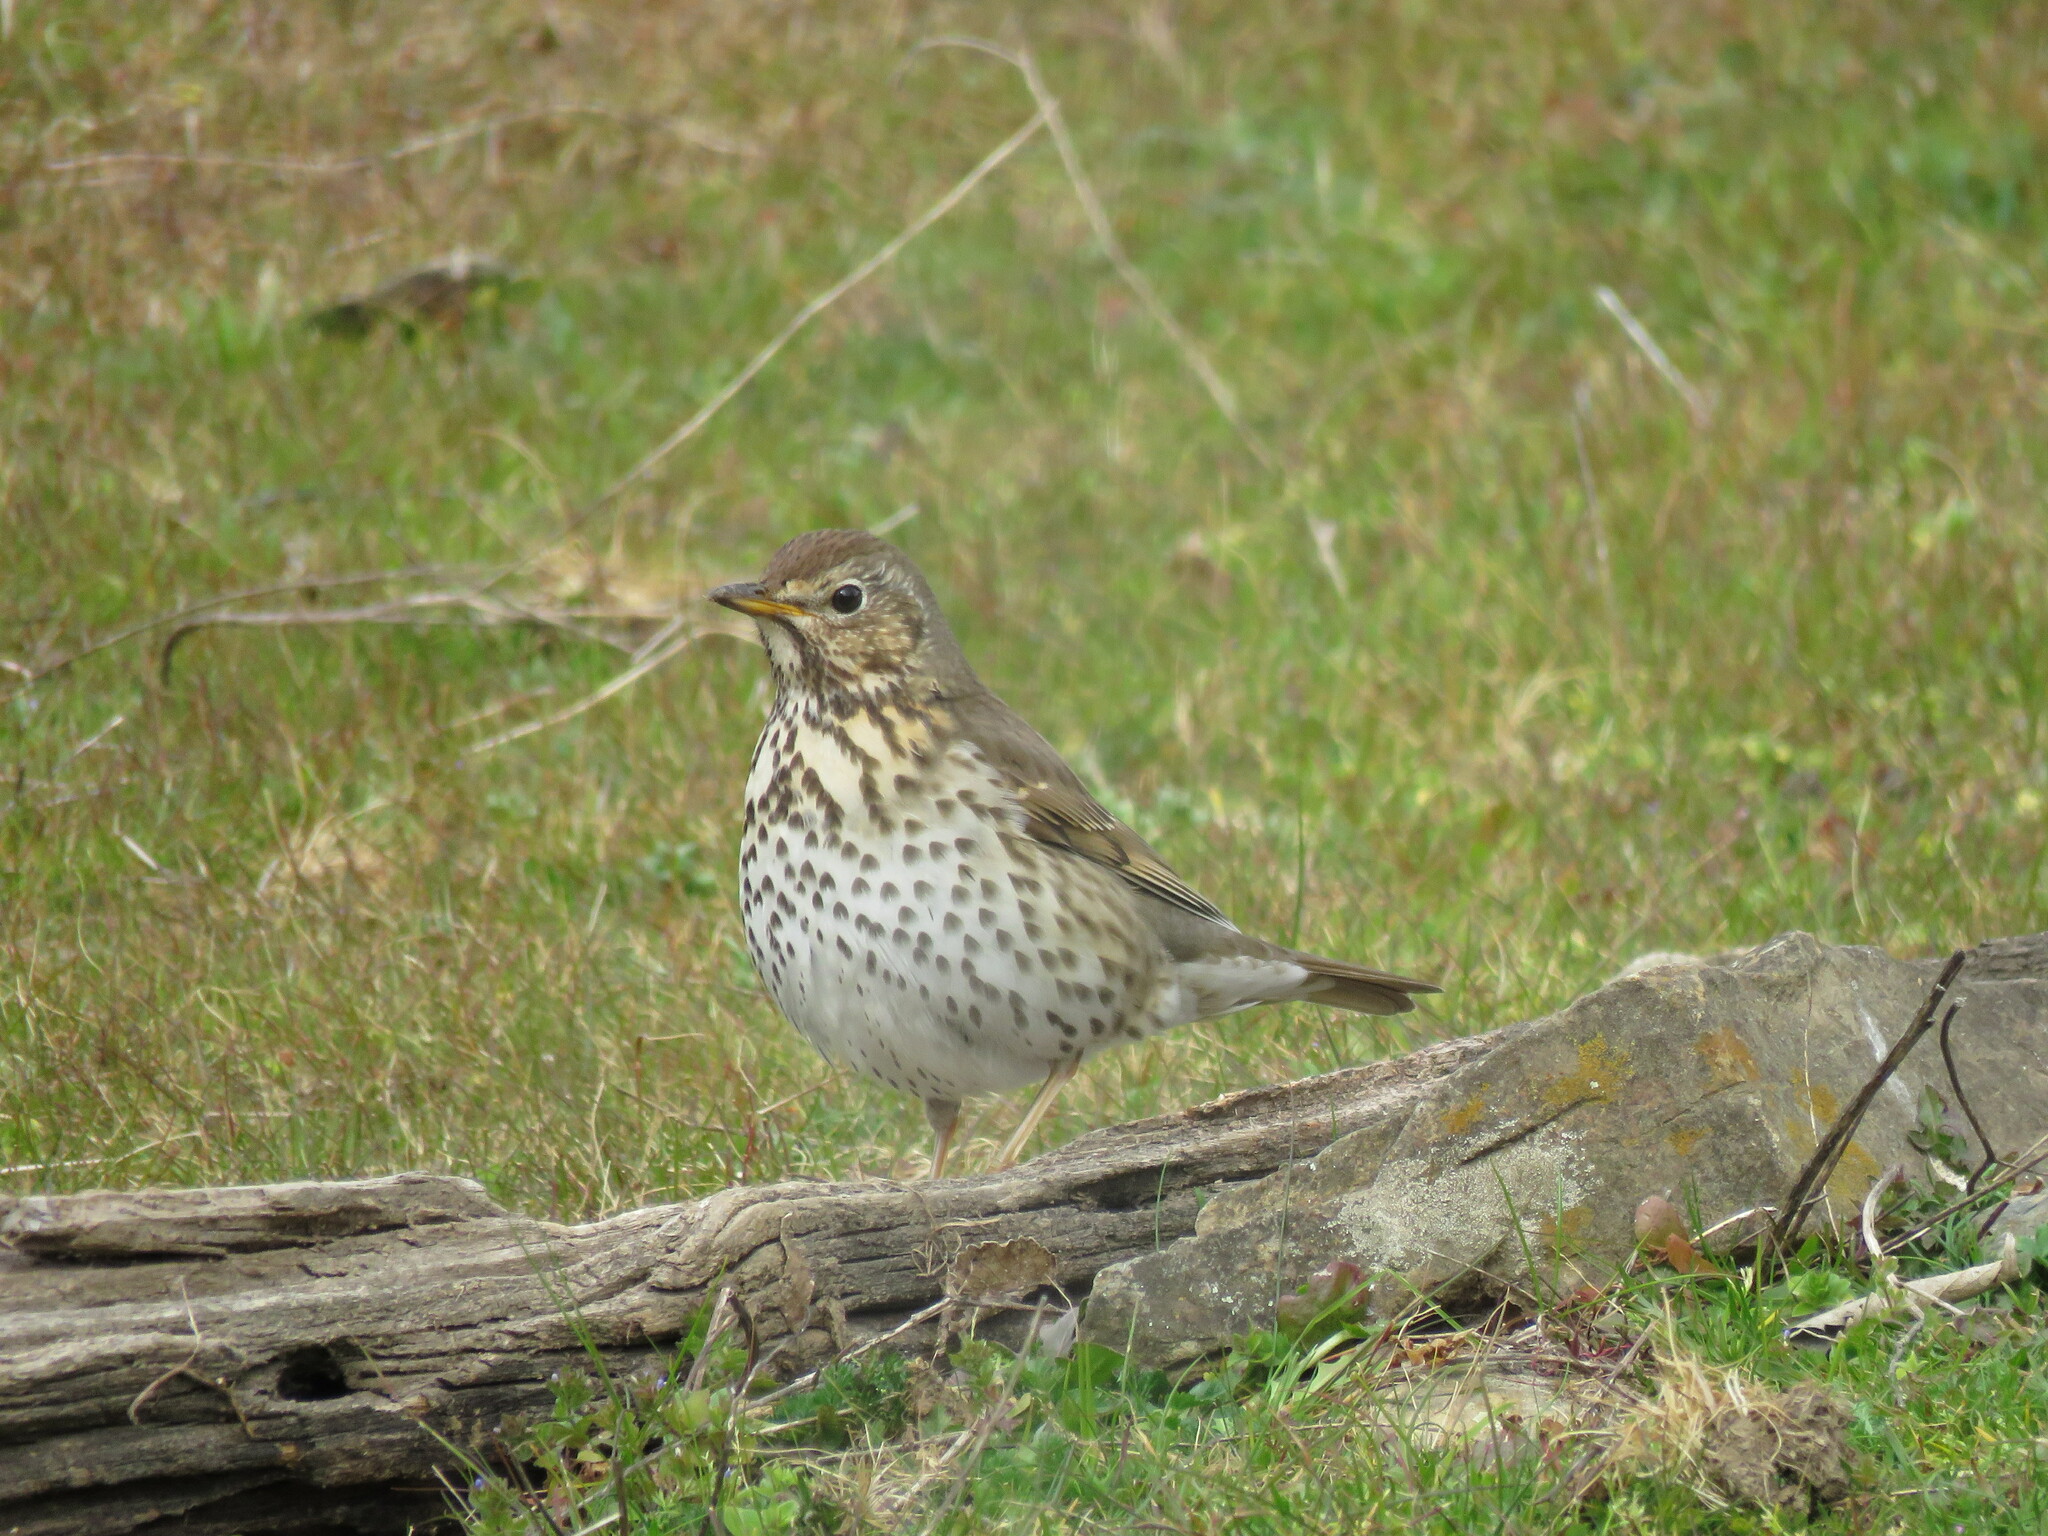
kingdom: Animalia
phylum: Chordata
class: Aves
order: Passeriformes
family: Turdidae
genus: Turdus
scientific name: Turdus philomelos
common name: Song thrush
